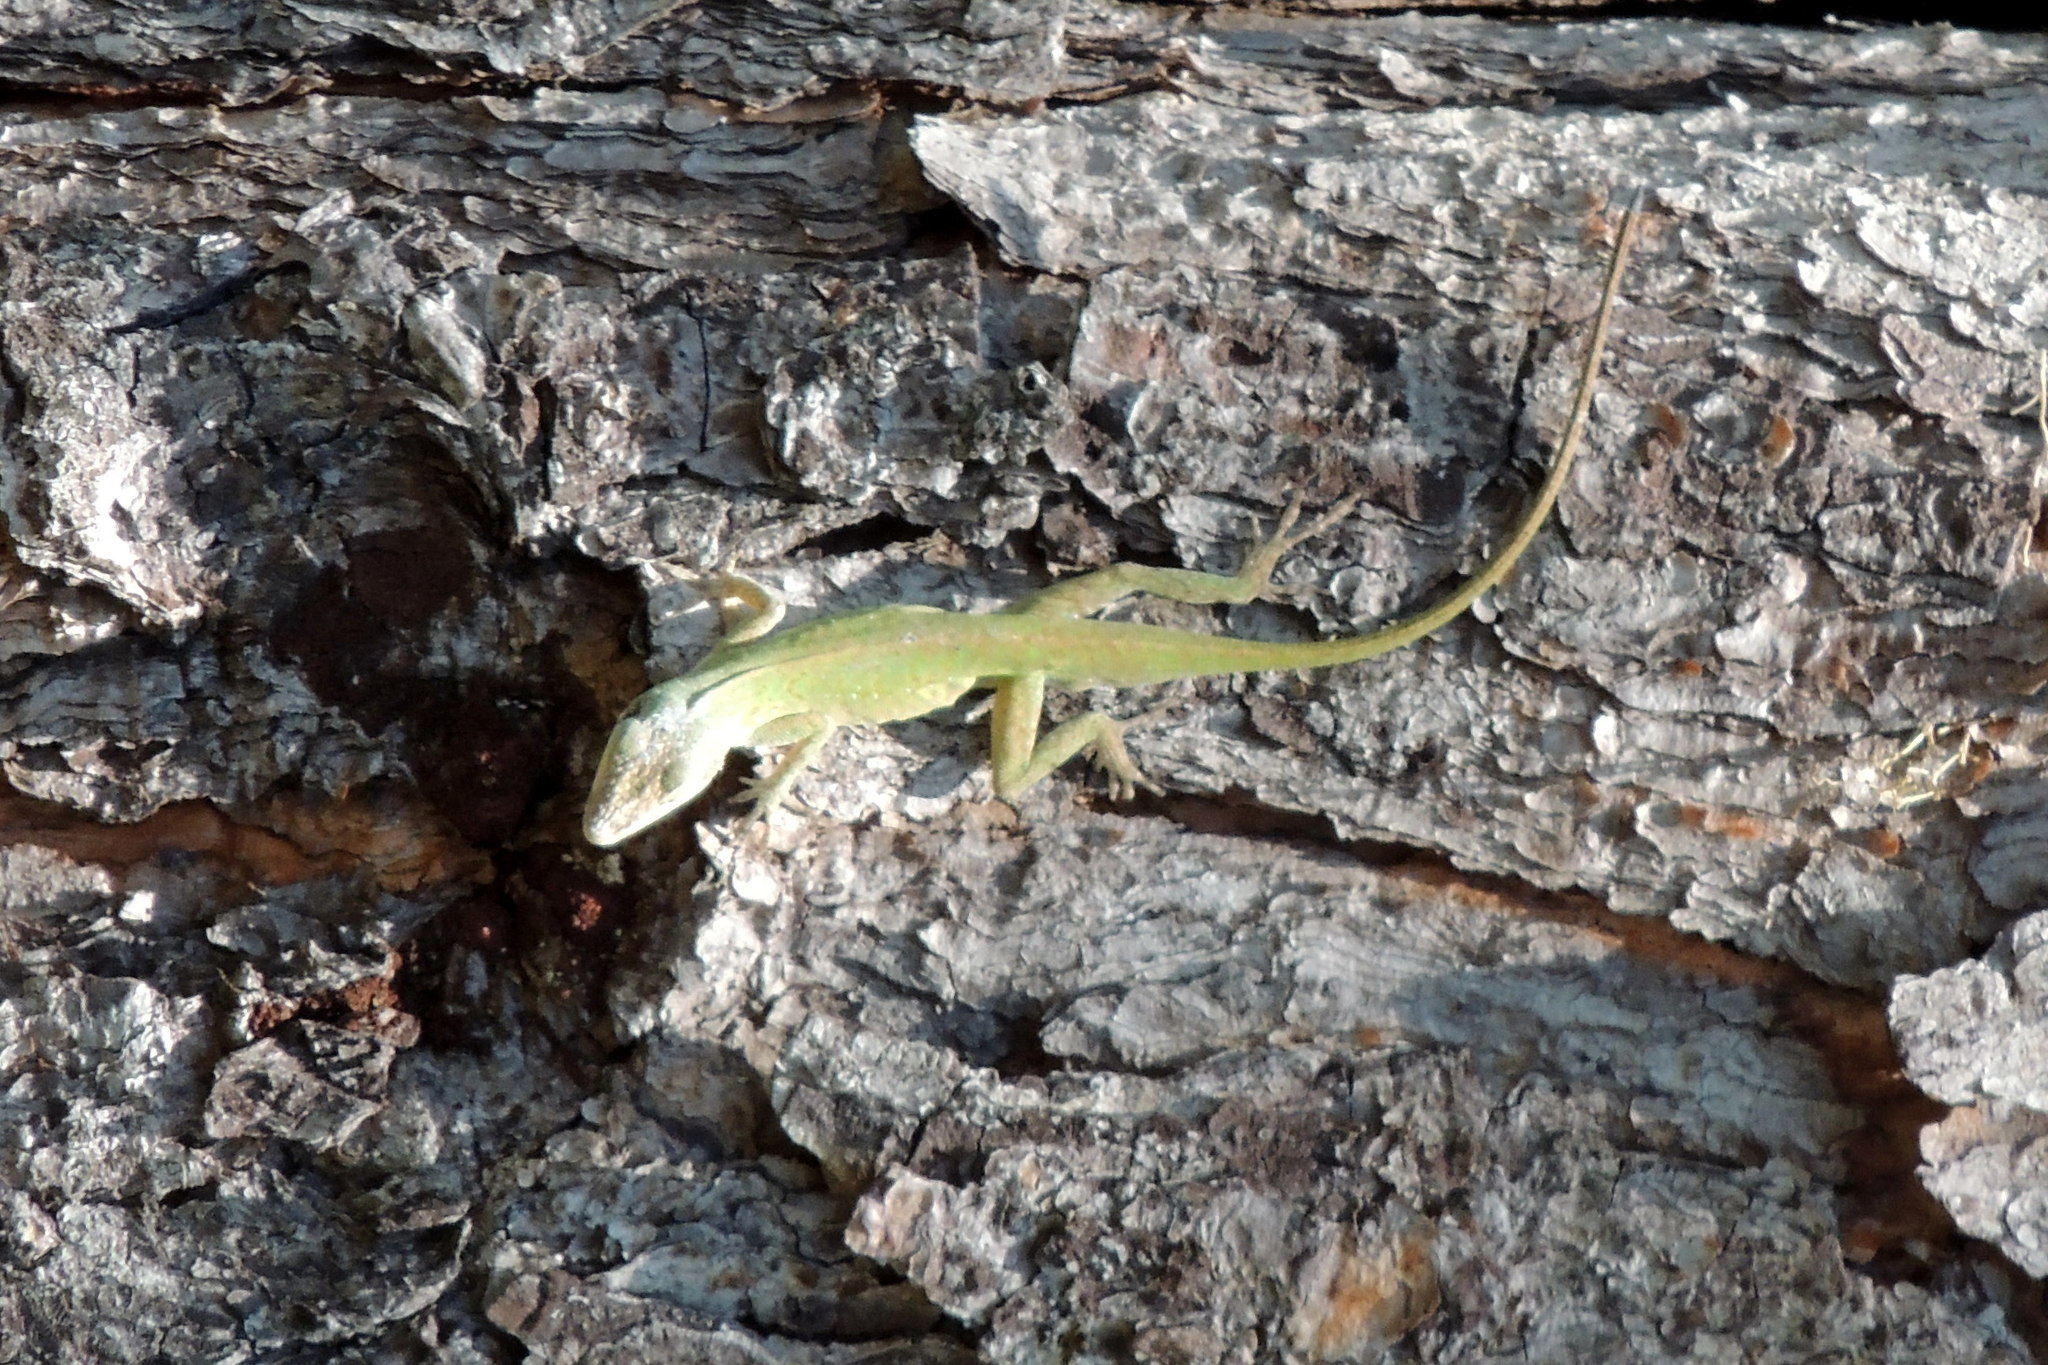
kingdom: Animalia
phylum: Chordata
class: Squamata
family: Dactyloidae
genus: Anolis
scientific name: Anolis carolinensis
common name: Green anole
